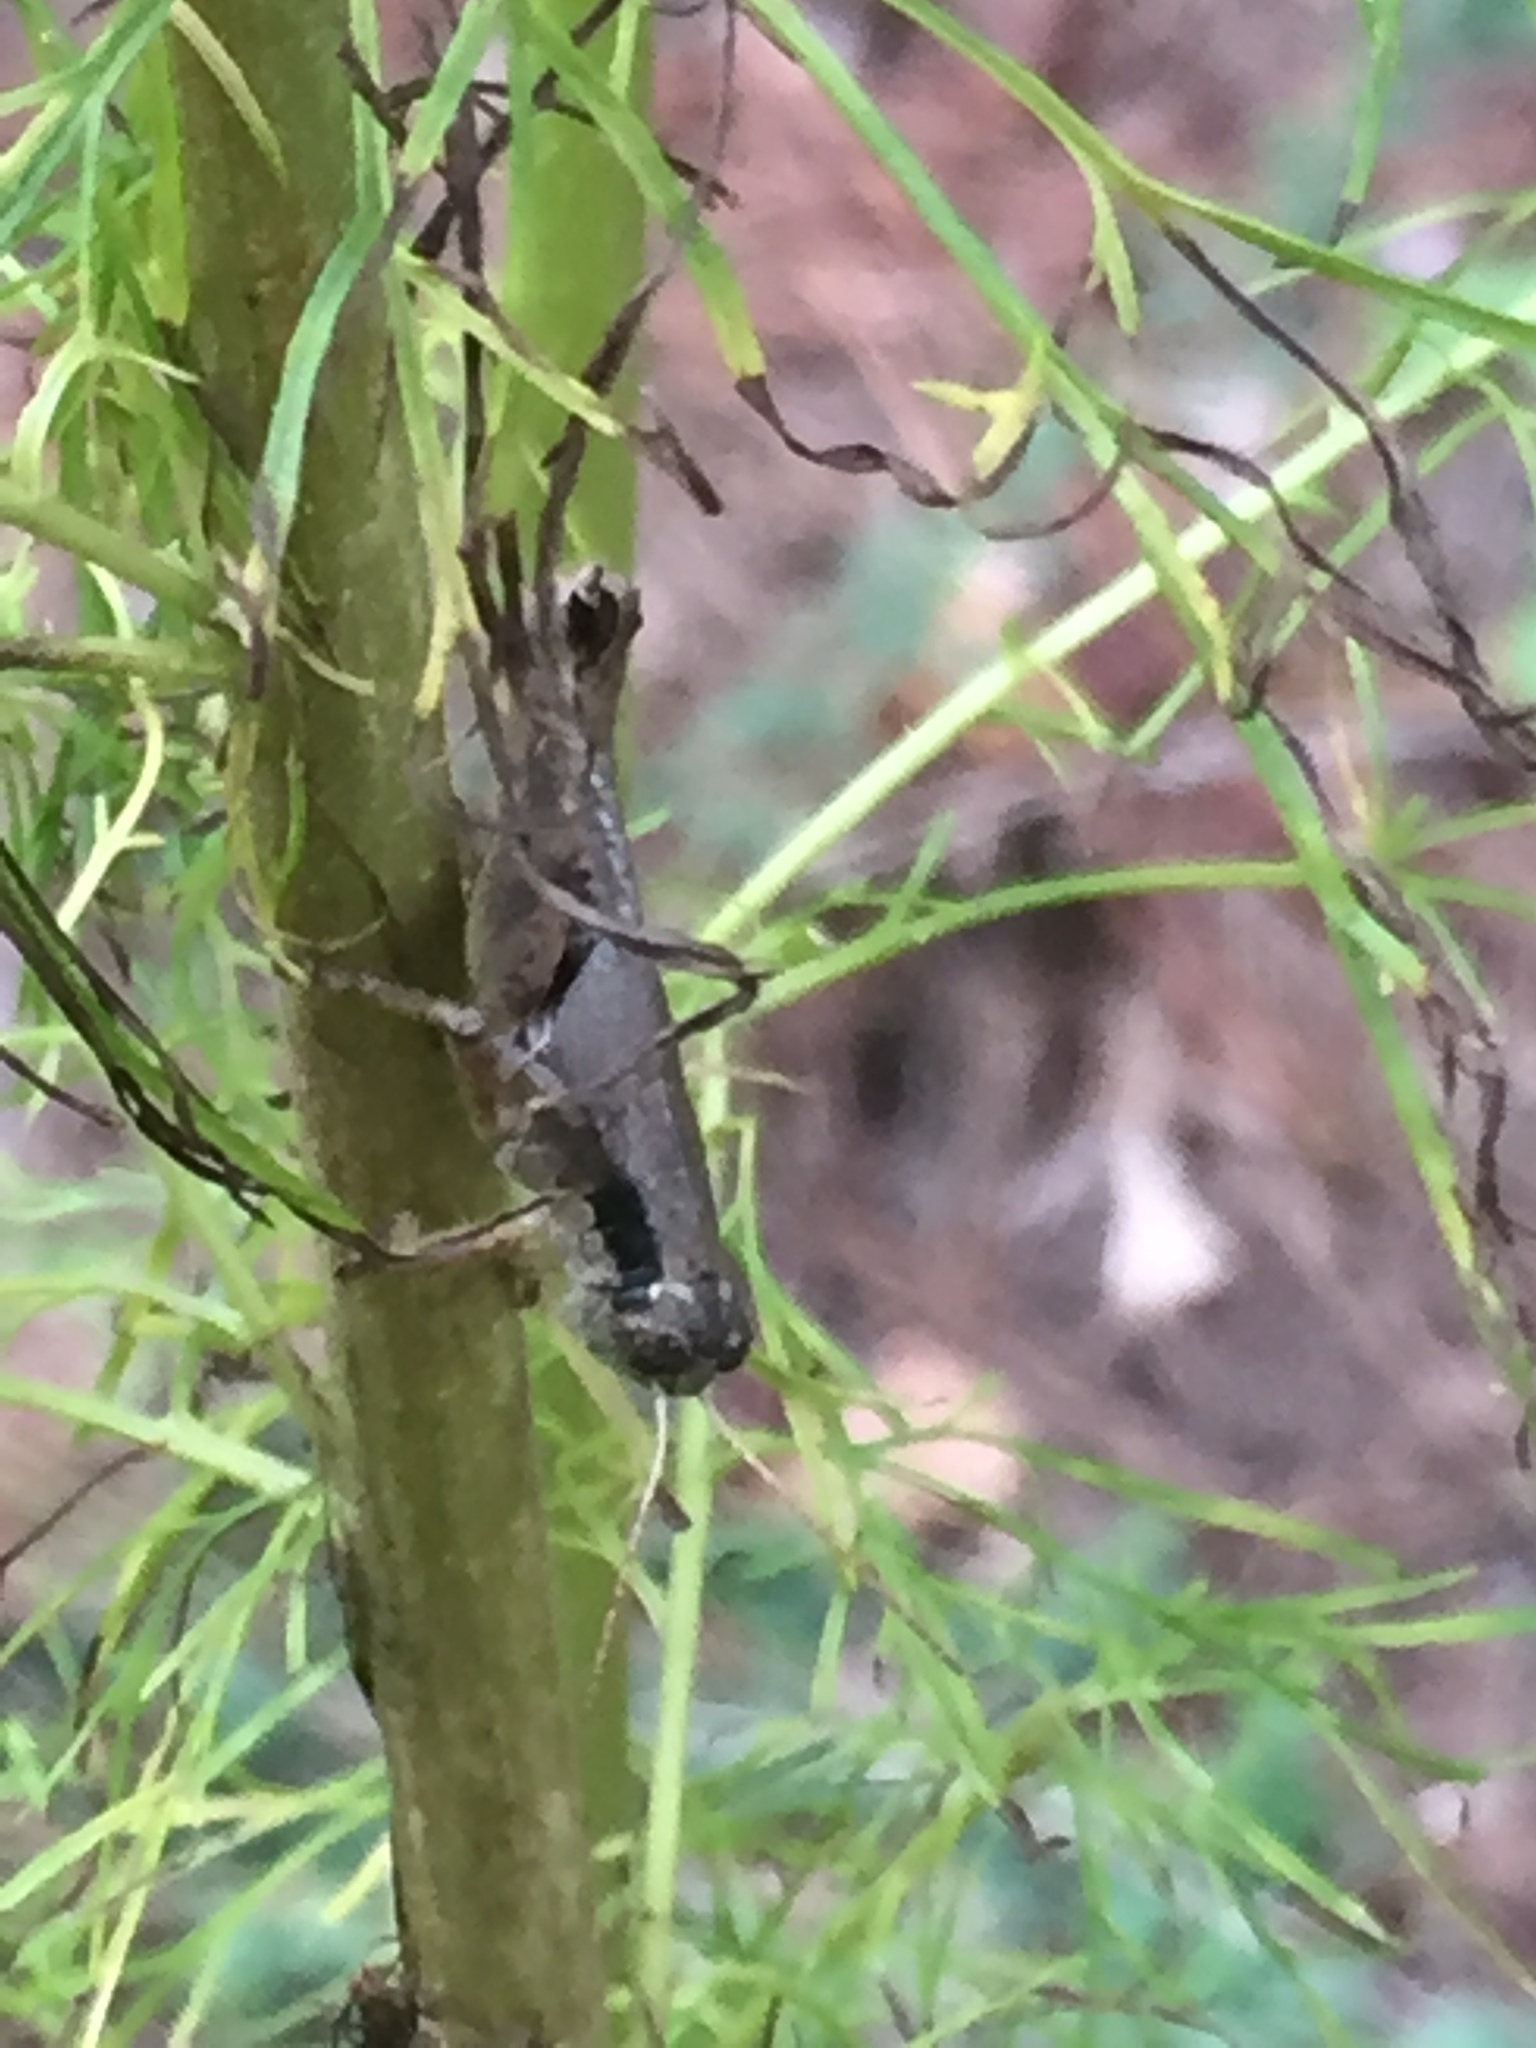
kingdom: Animalia
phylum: Arthropoda
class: Insecta
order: Orthoptera
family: Acrididae
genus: Melanoplus
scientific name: Melanoplus scudderi
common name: Scudder's short-winged locust
